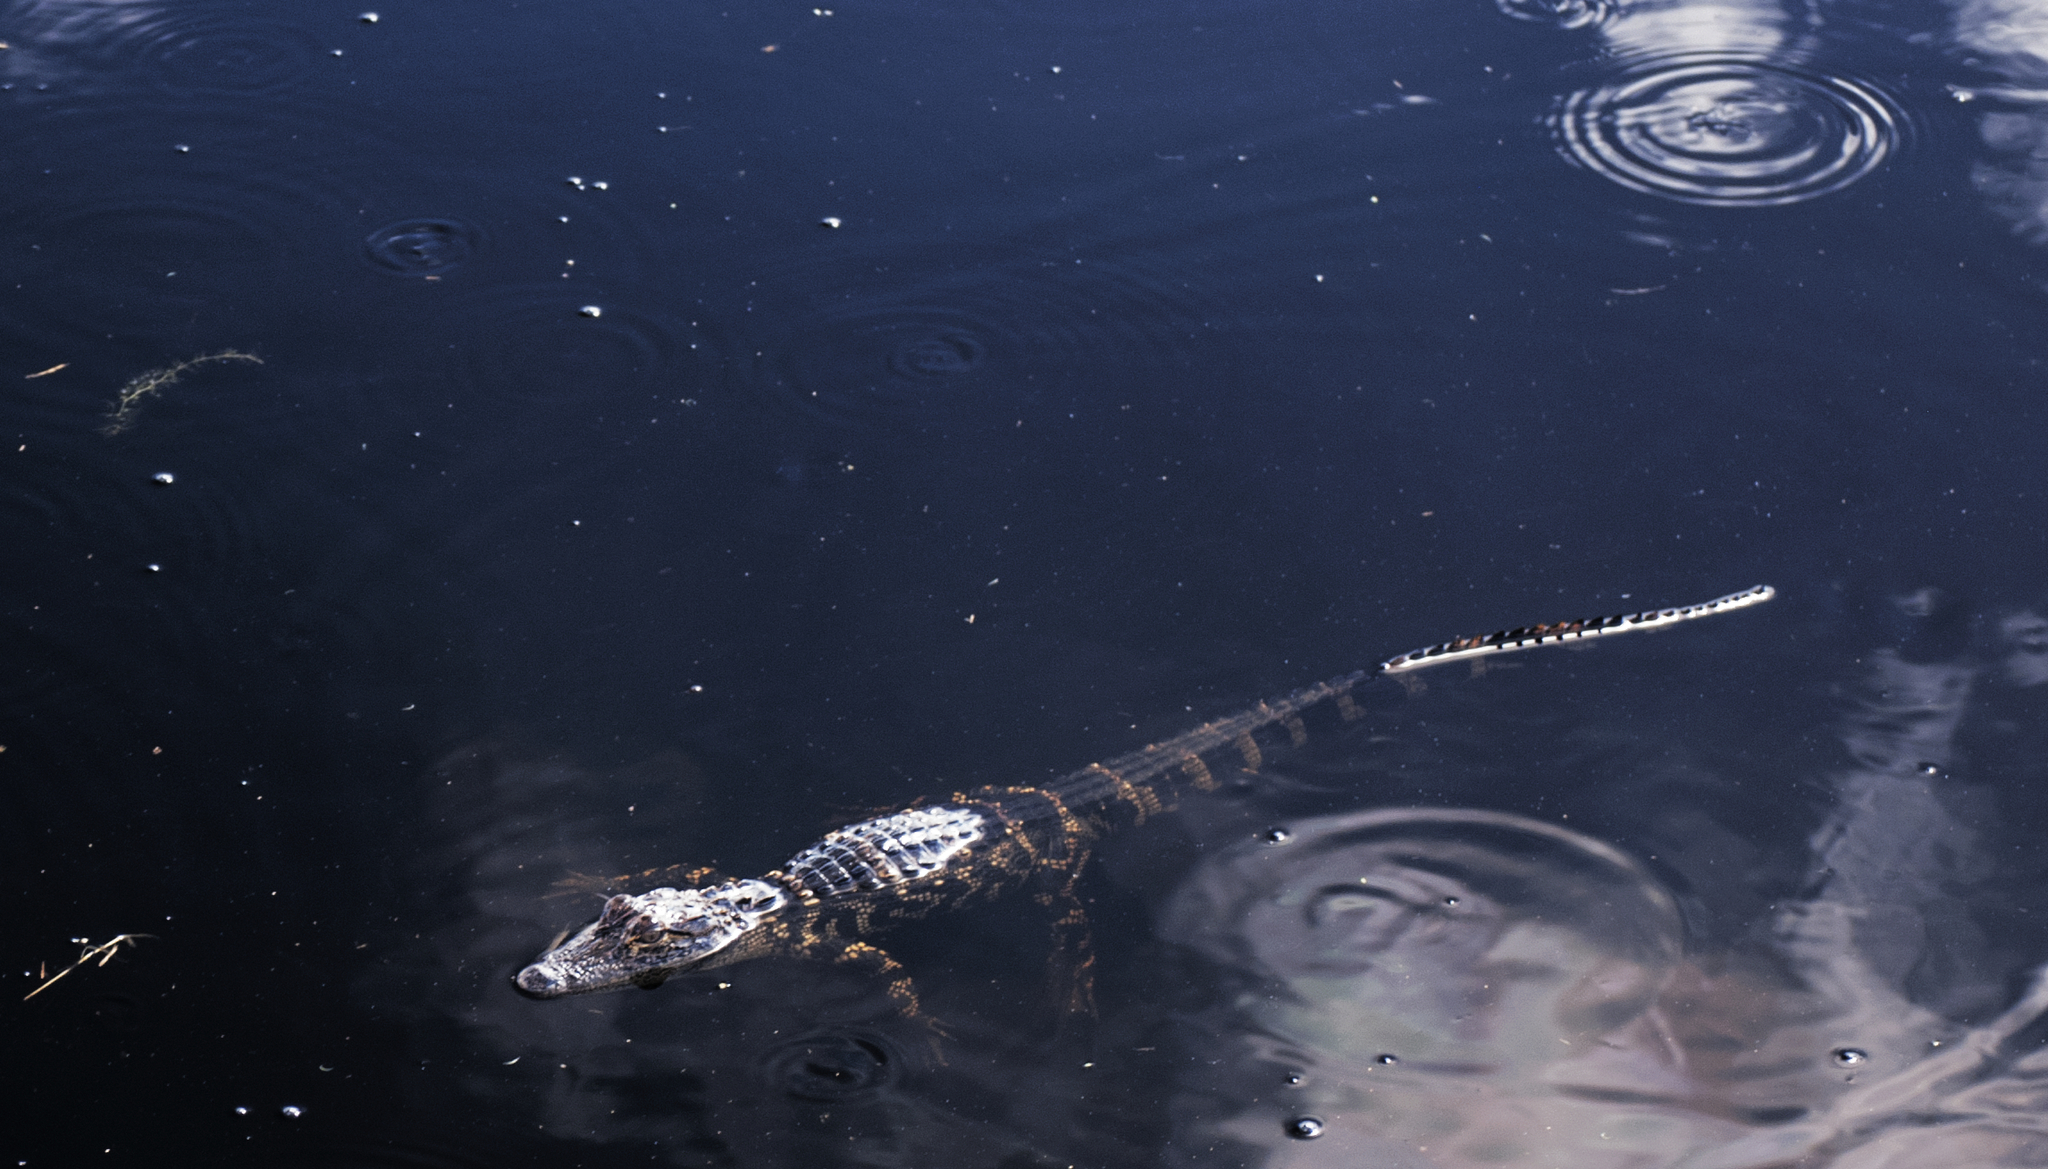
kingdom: Animalia
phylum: Chordata
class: Crocodylia
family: Alligatoridae
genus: Alligator
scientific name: Alligator mississippiensis
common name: American alligator
